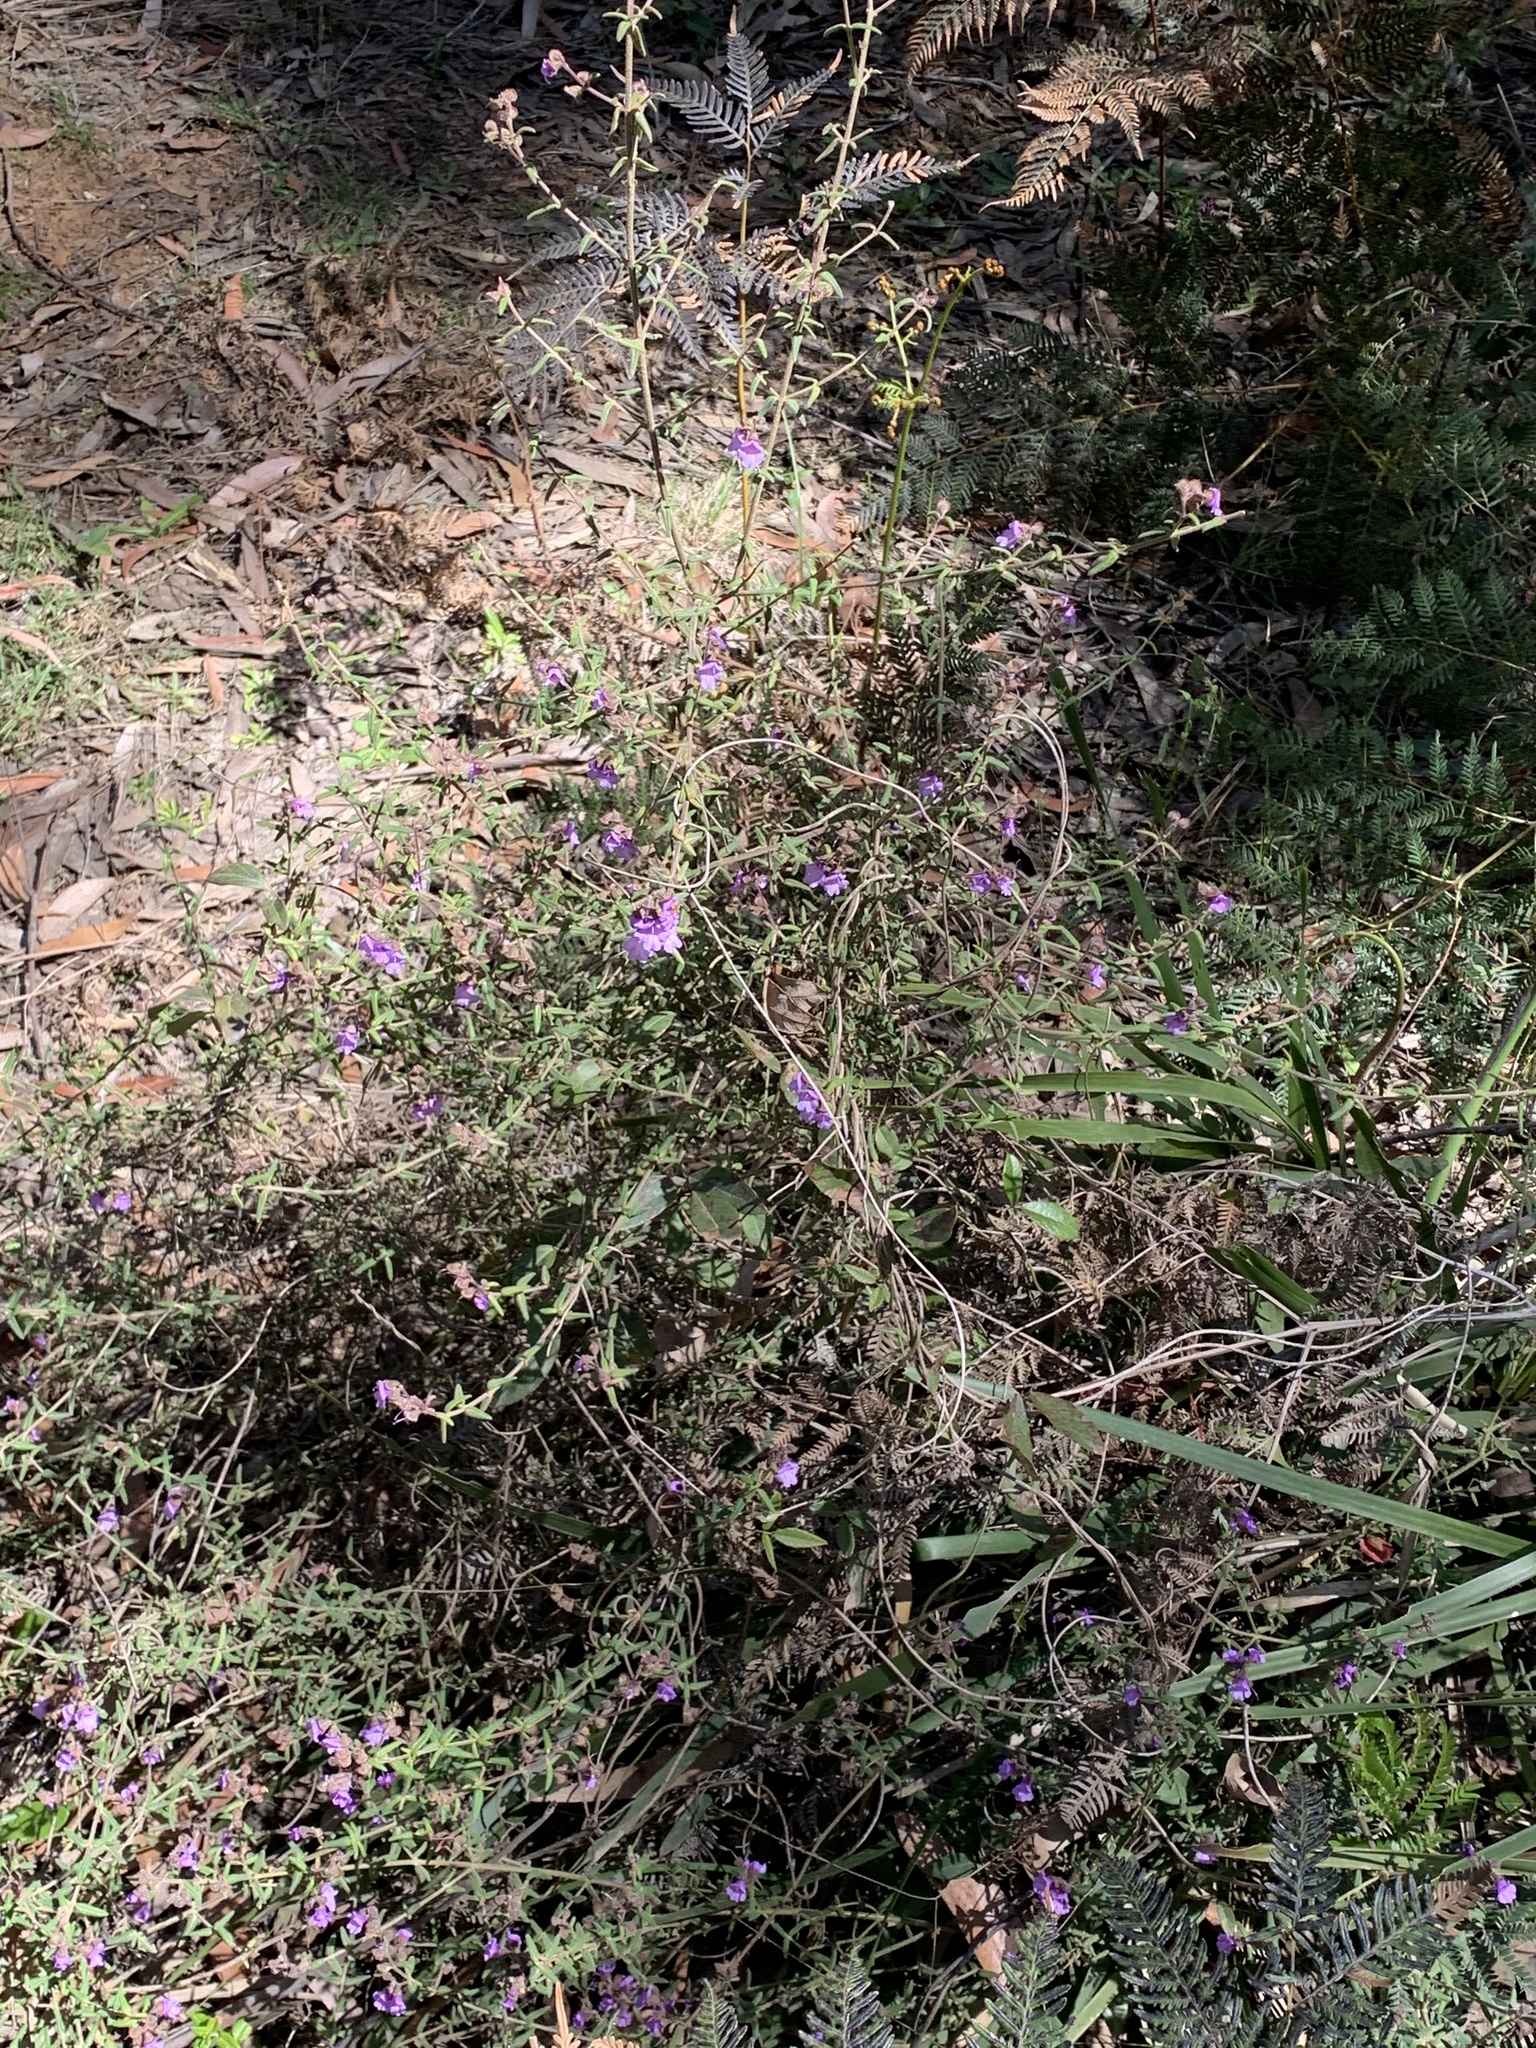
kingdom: Plantae
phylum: Tracheophyta
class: Magnoliopsida
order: Lamiales
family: Lamiaceae
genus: Prostanthera
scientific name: Prostanthera hirtula
